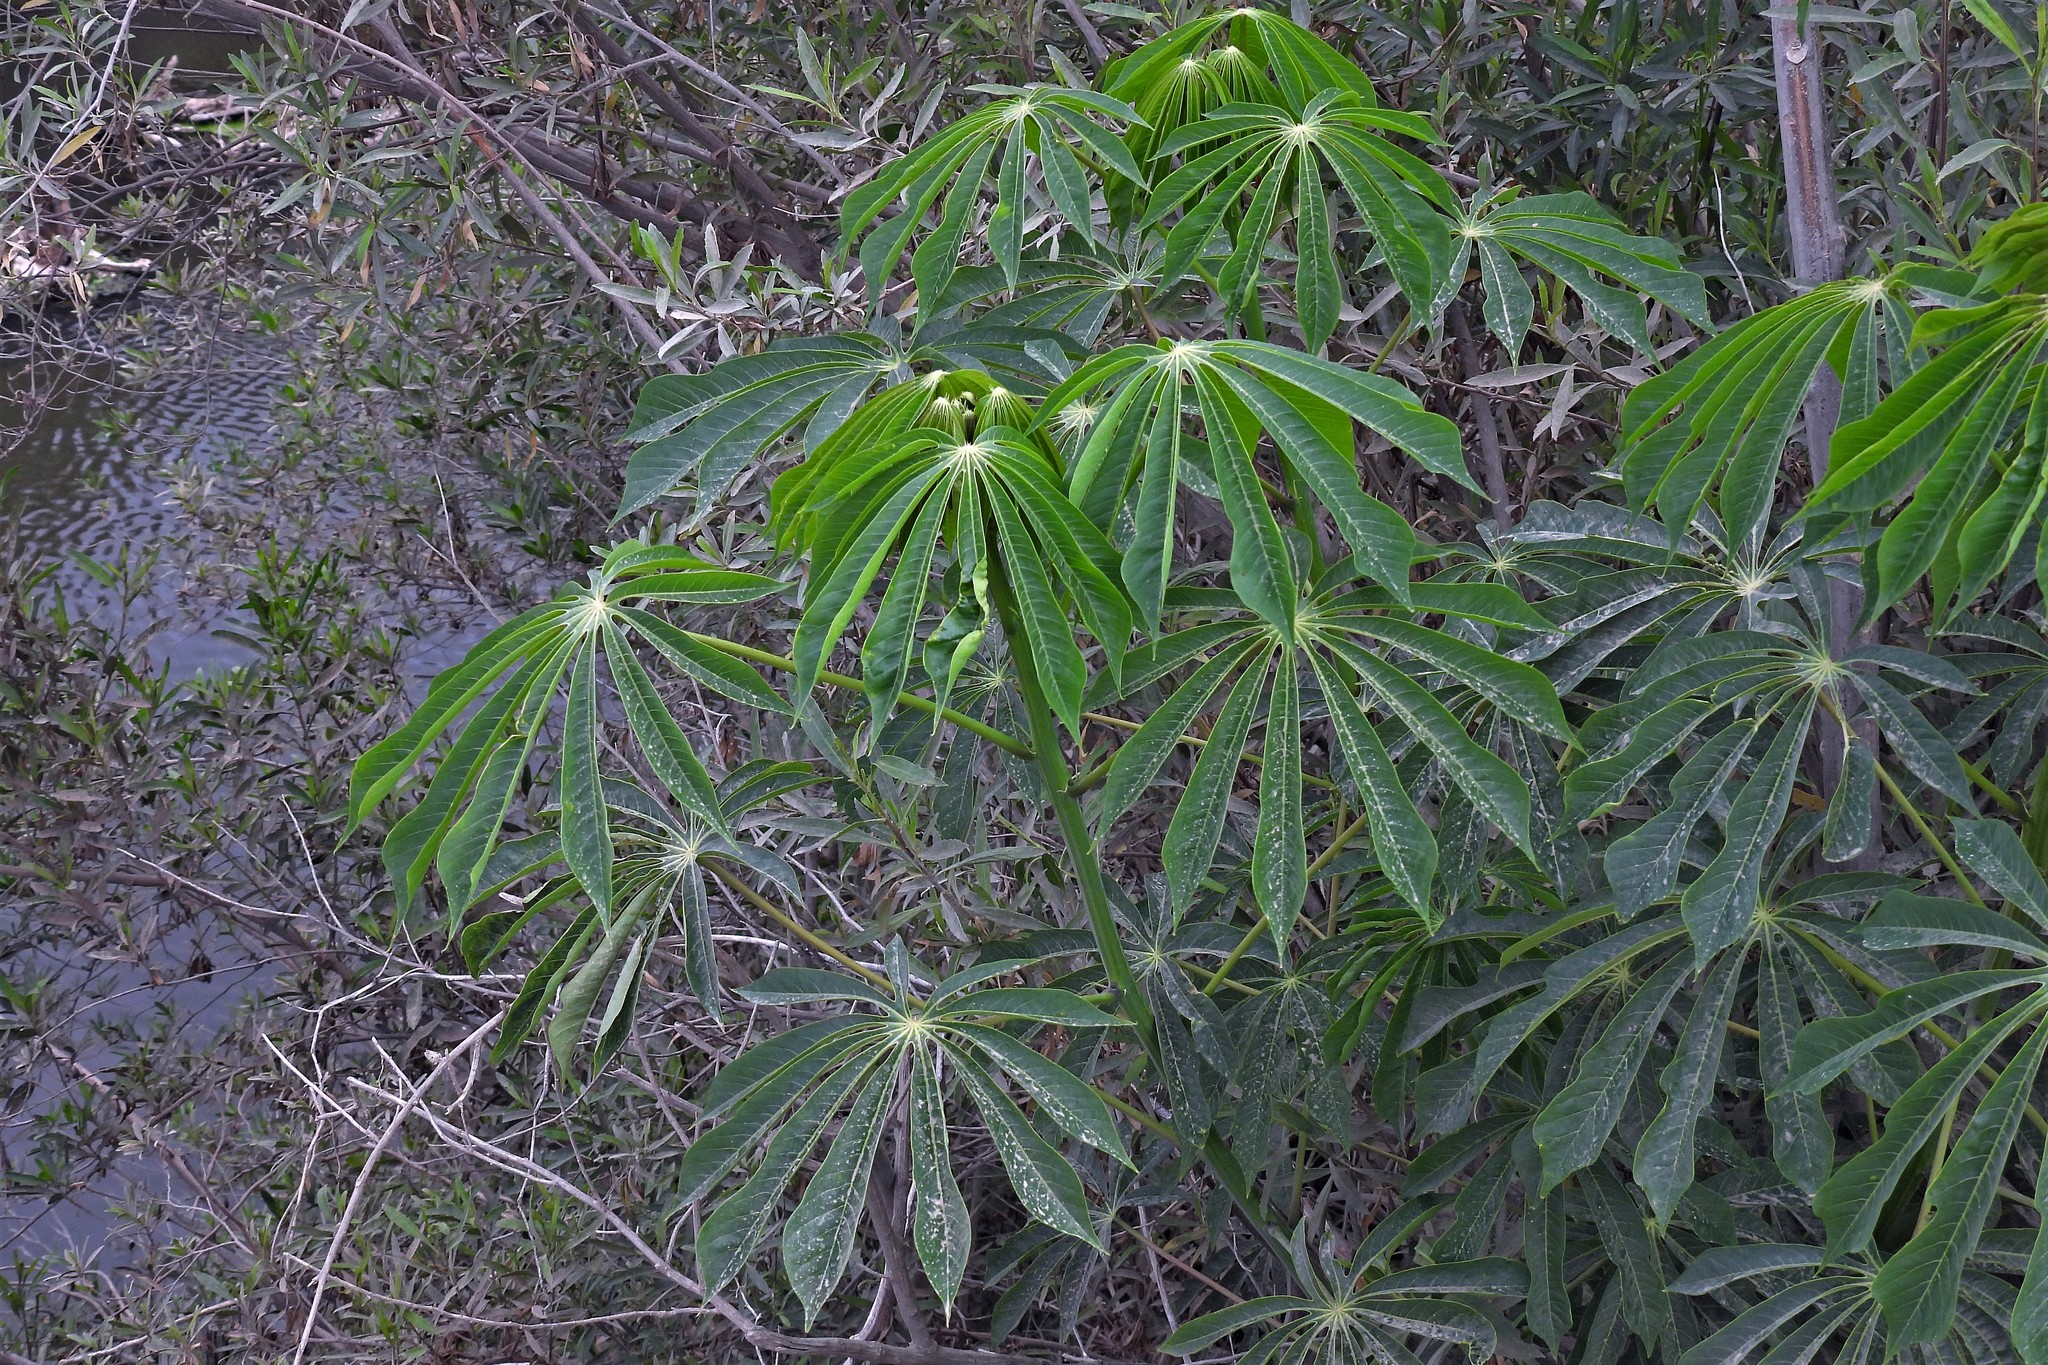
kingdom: Plantae
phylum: Tracheophyta
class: Magnoliopsida
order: Malpighiales
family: Euphorbiaceae
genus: Manihot
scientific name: Manihot grahamii
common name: Graham's manihot
